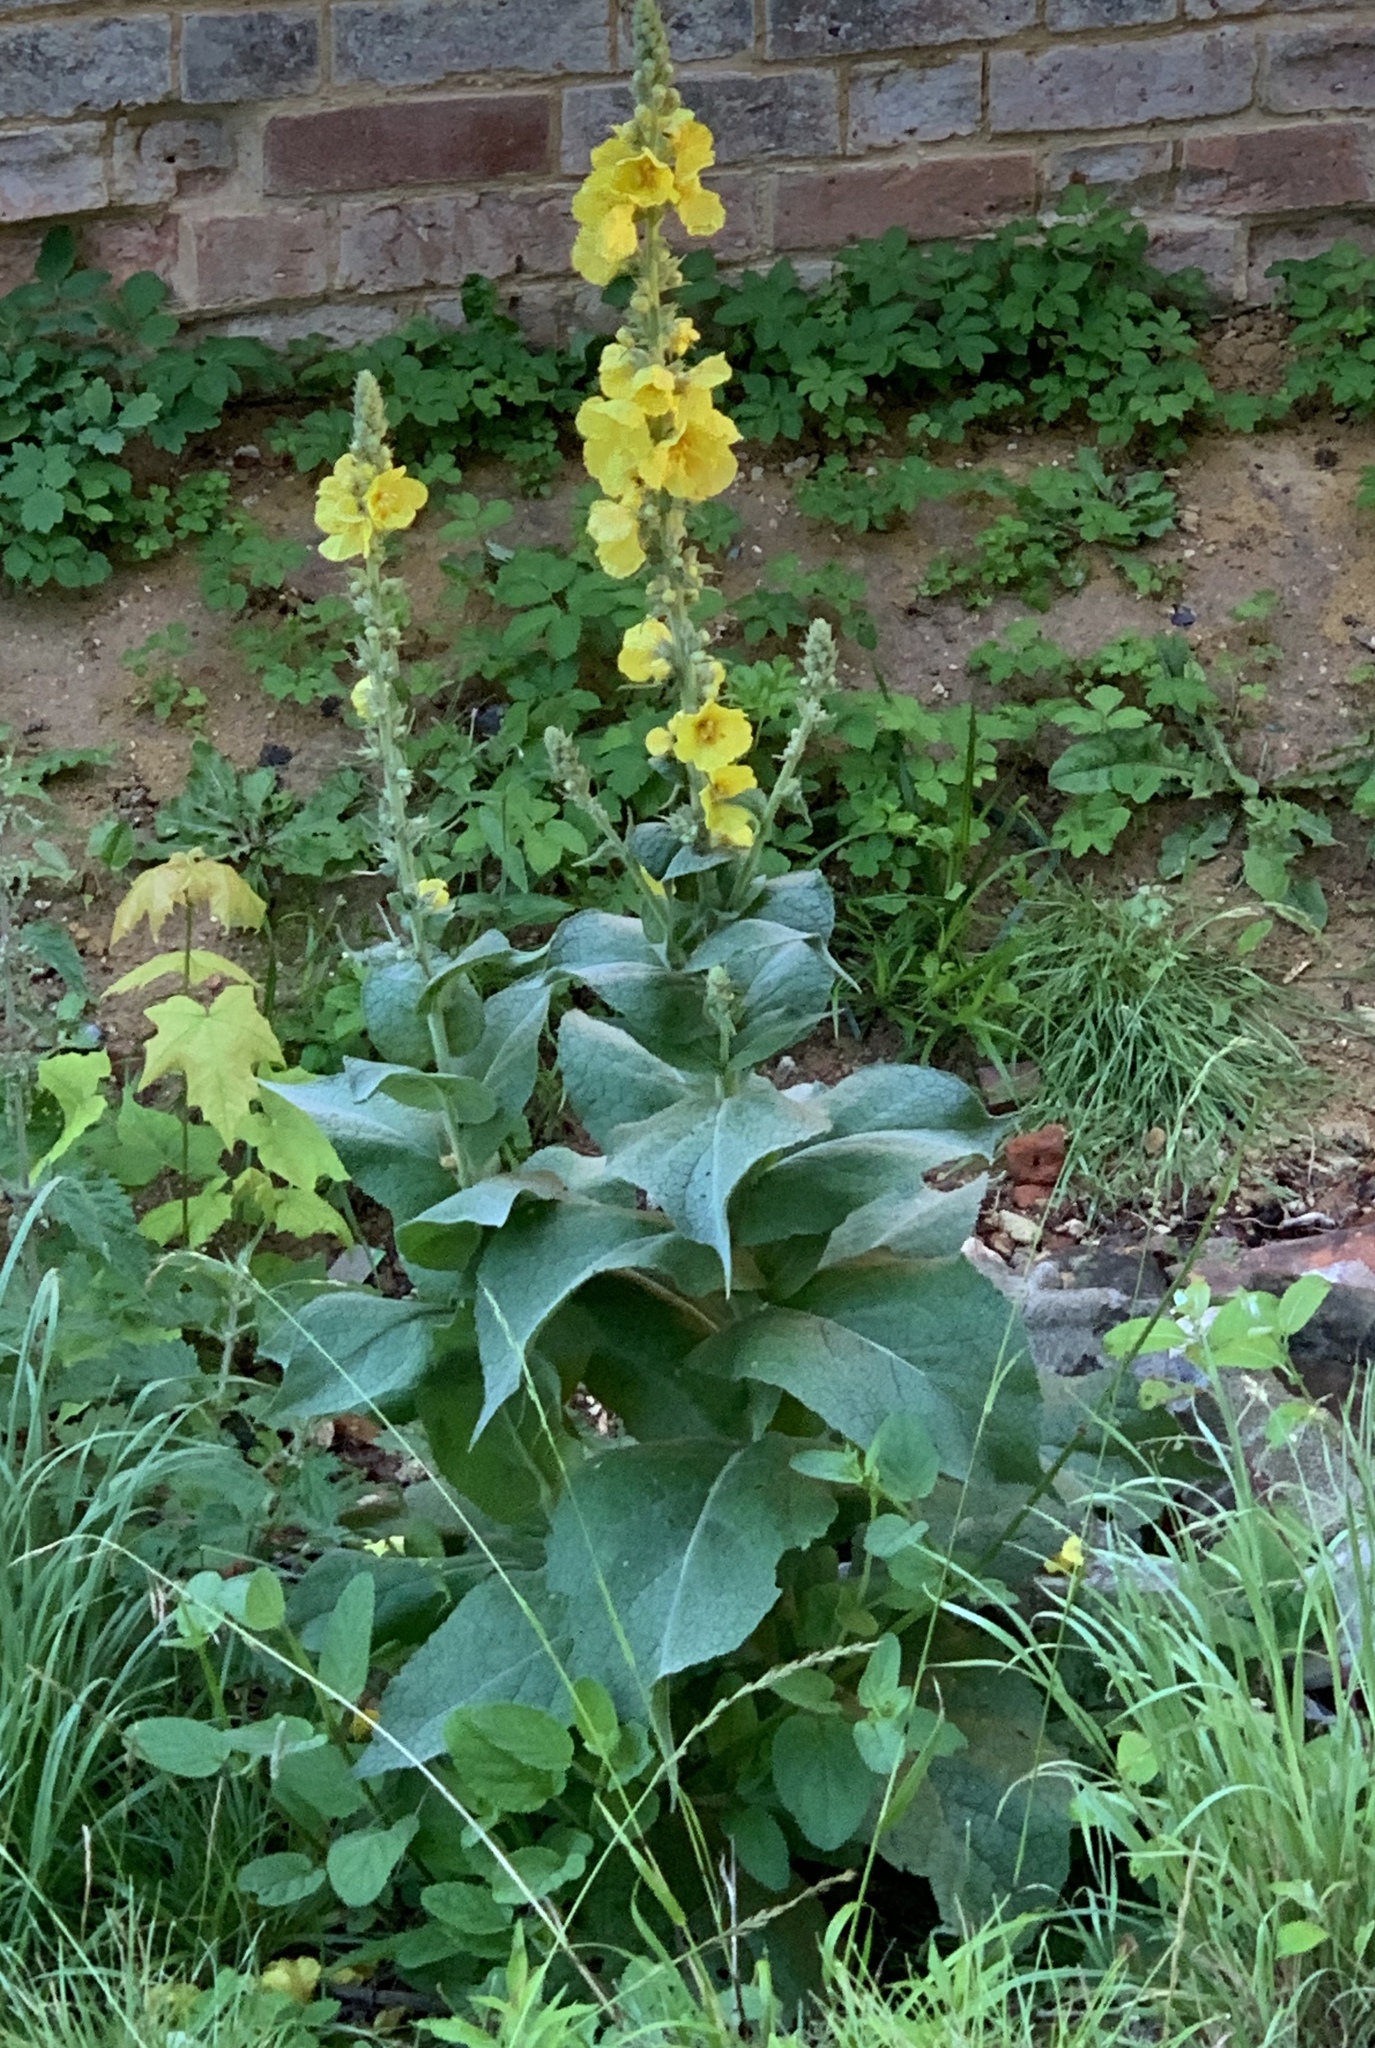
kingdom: Plantae
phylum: Tracheophyta
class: Magnoliopsida
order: Lamiales
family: Scrophulariaceae
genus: Verbascum
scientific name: Verbascum phlomoides
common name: Orange mullein
